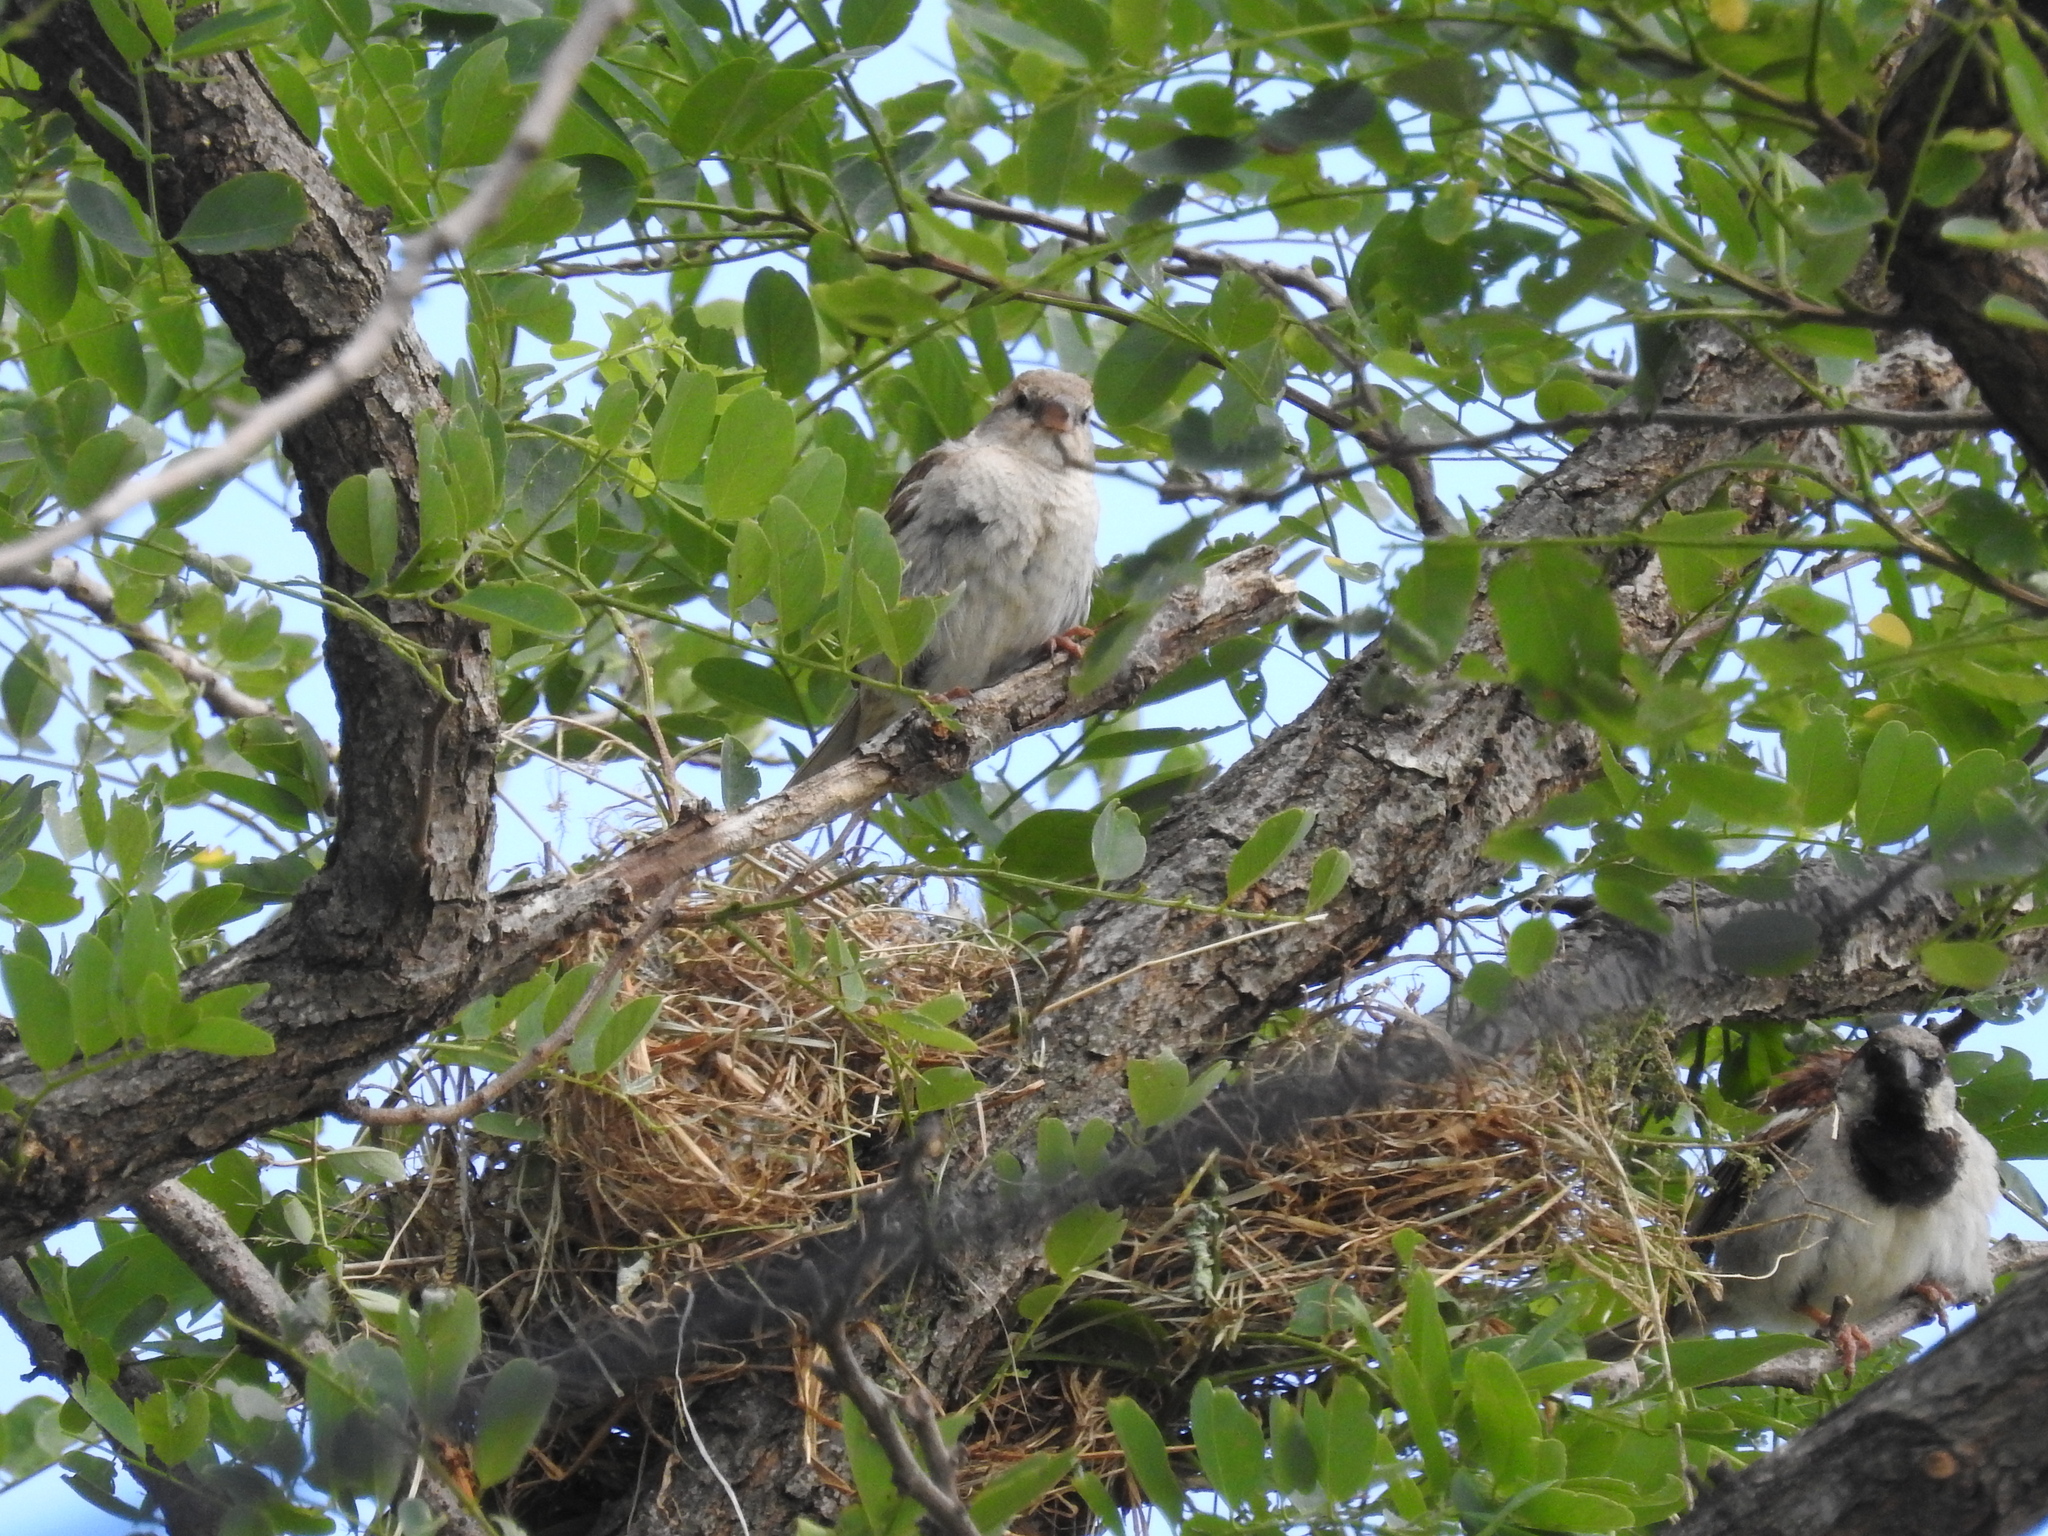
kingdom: Animalia
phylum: Chordata
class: Aves
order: Passeriformes
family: Passeridae
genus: Passer
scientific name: Passer domesticus
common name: House sparrow
